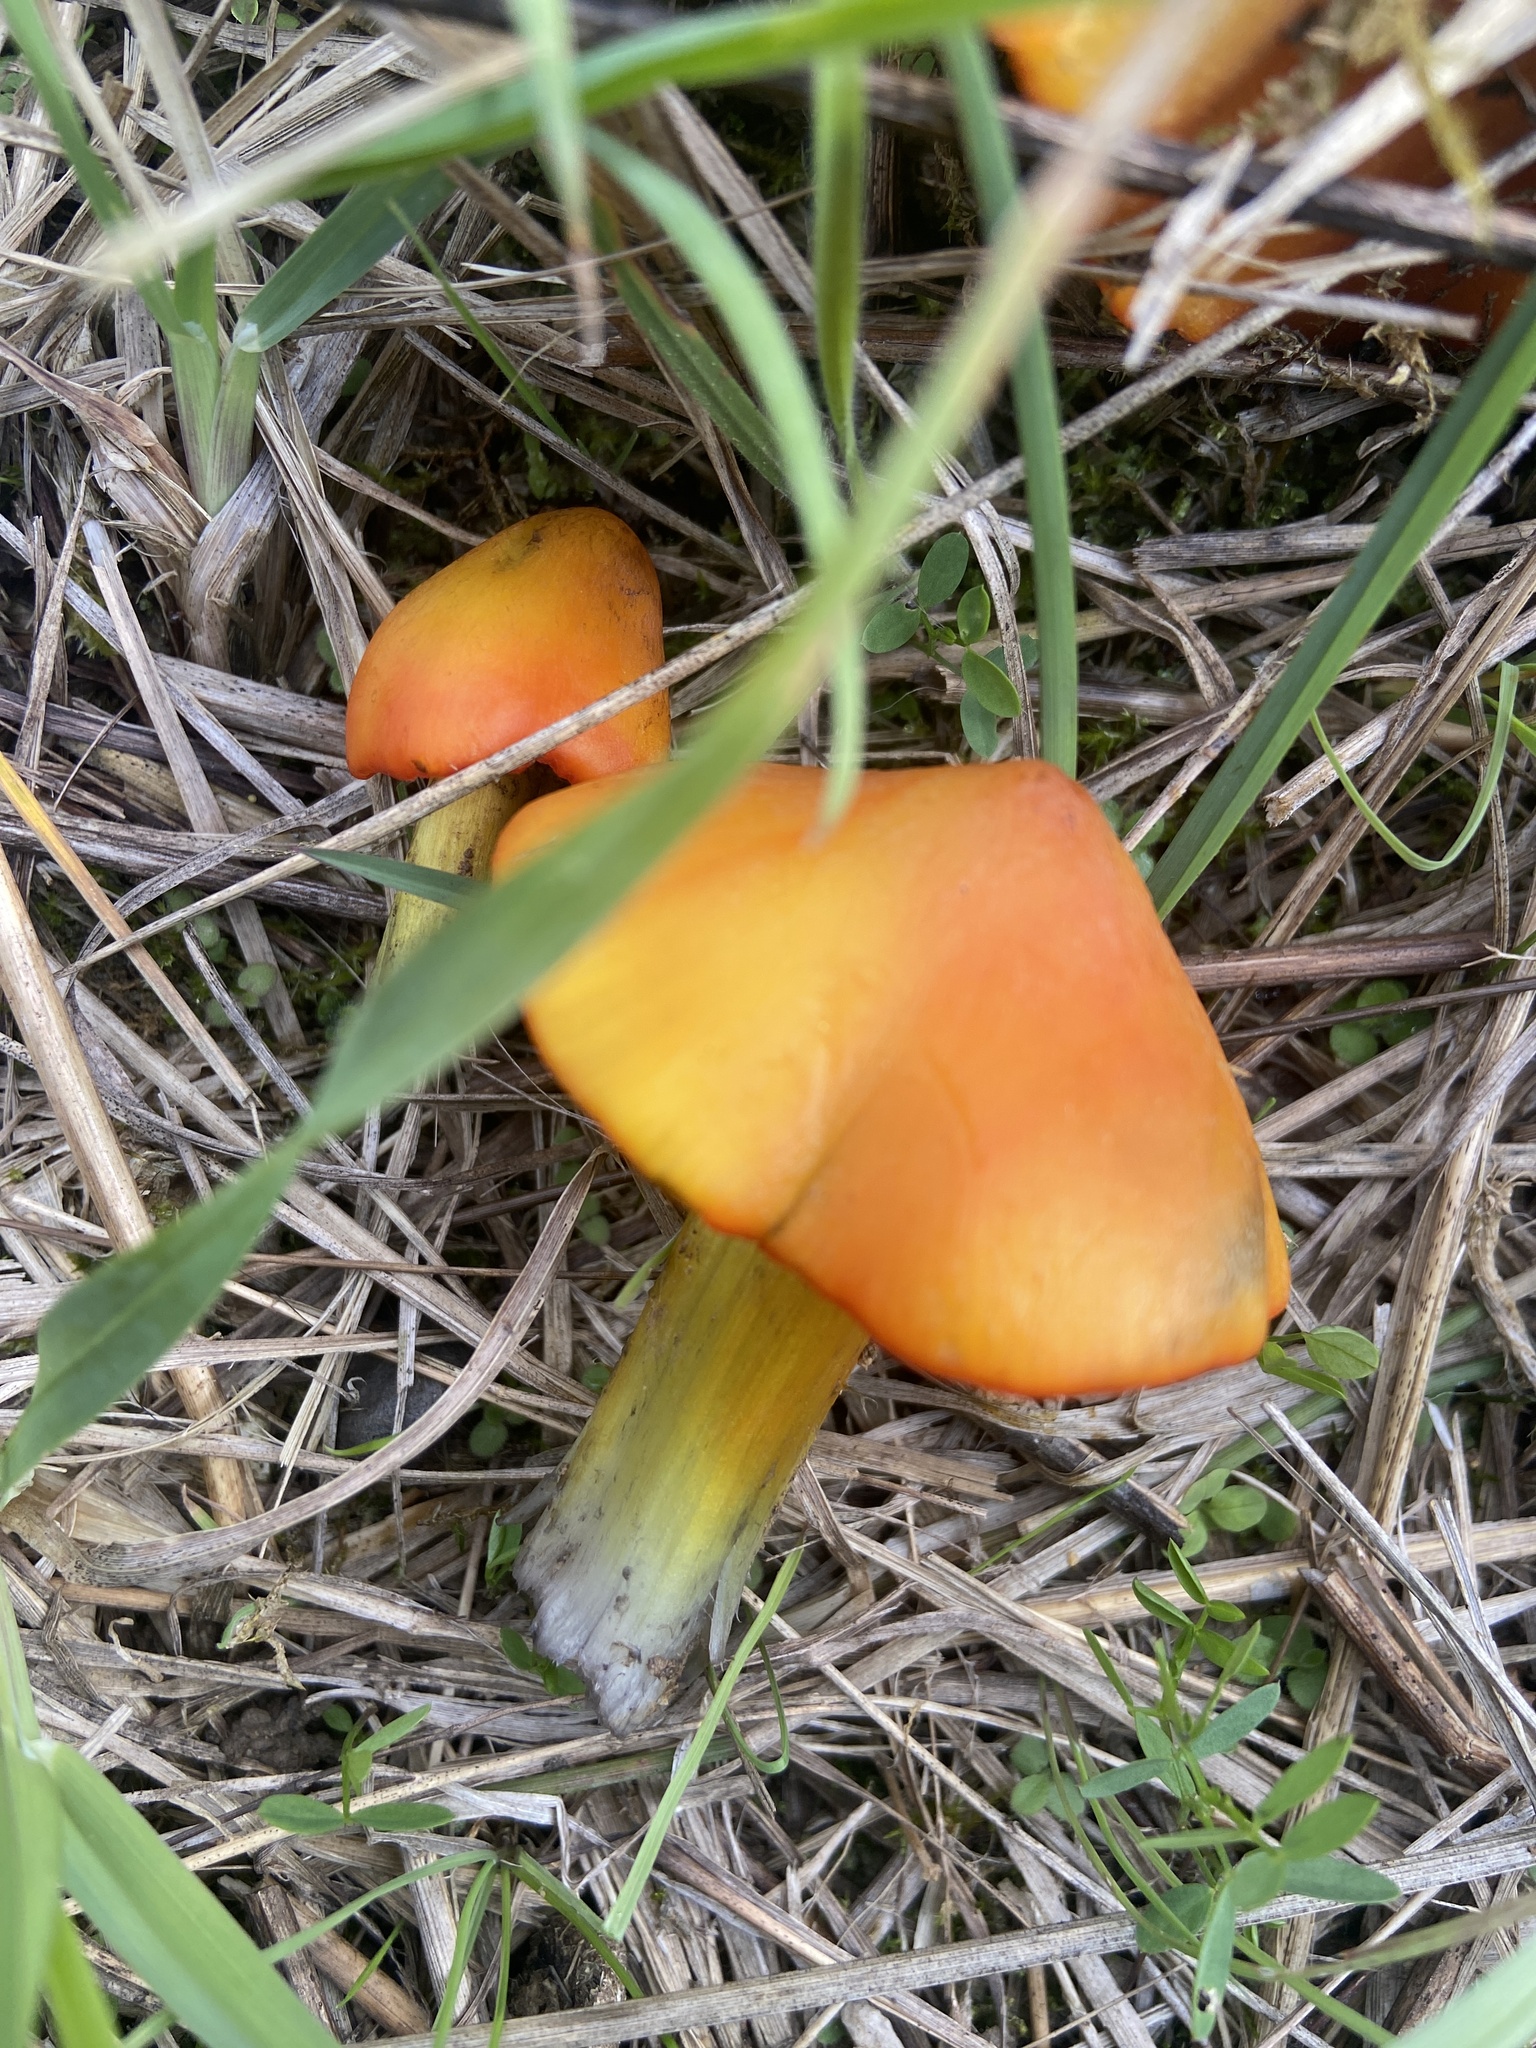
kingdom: Fungi
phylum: Basidiomycota
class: Agaricomycetes
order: Agaricales
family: Hygrophoraceae
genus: Hygrocybe
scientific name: Hygrocybe conica
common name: Blackening wax-cap
